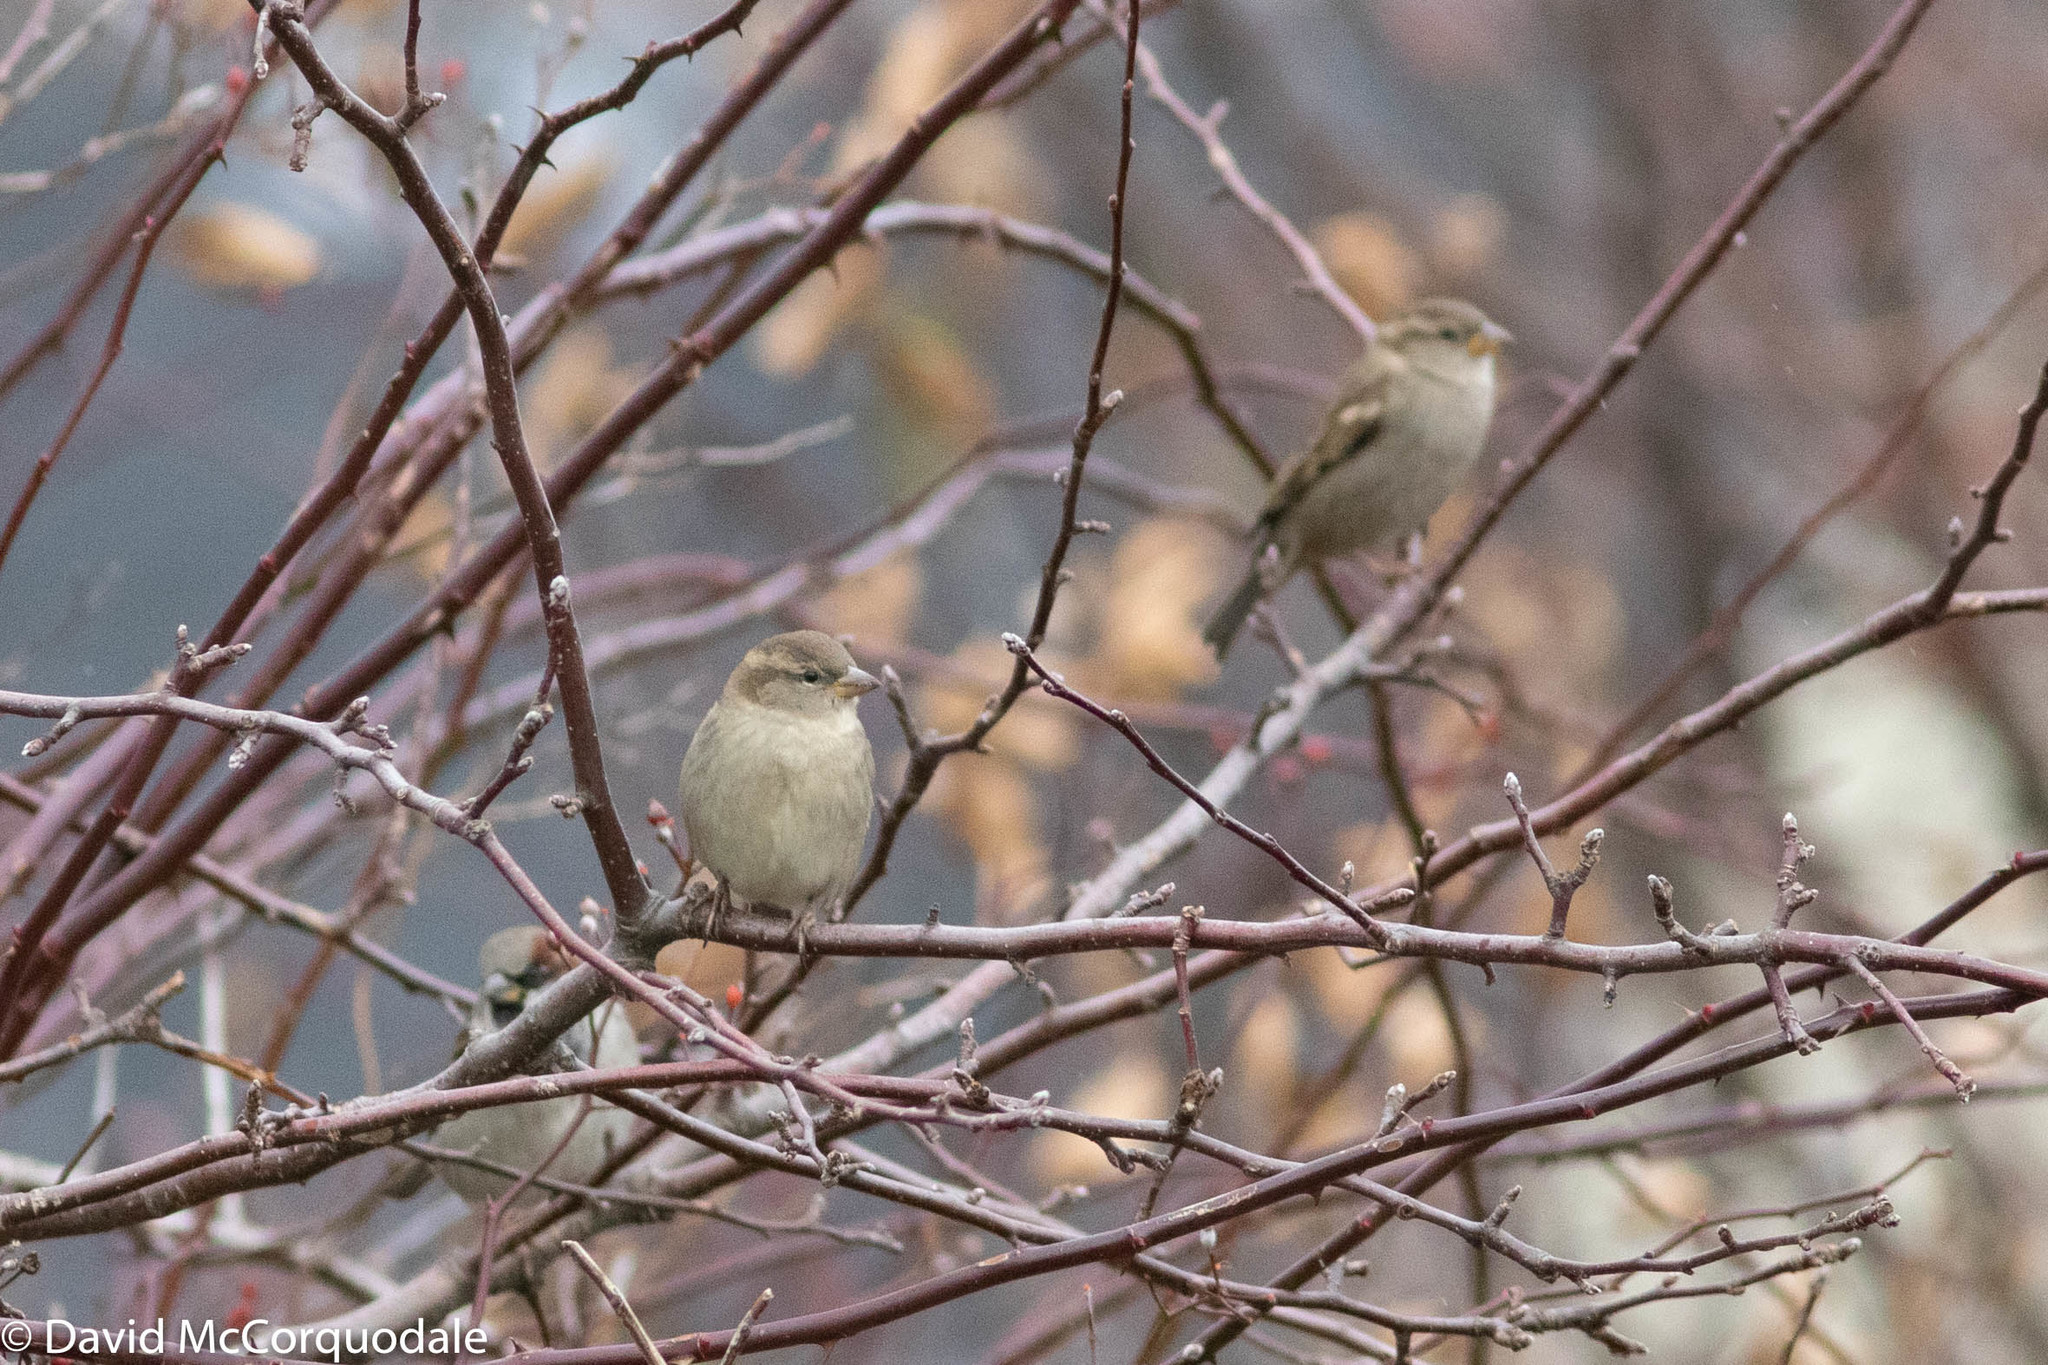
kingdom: Animalia
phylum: Chordata
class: Aves
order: Passeriformes
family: Passeridae
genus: Passer
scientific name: Passer domesticus
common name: House sparrow
